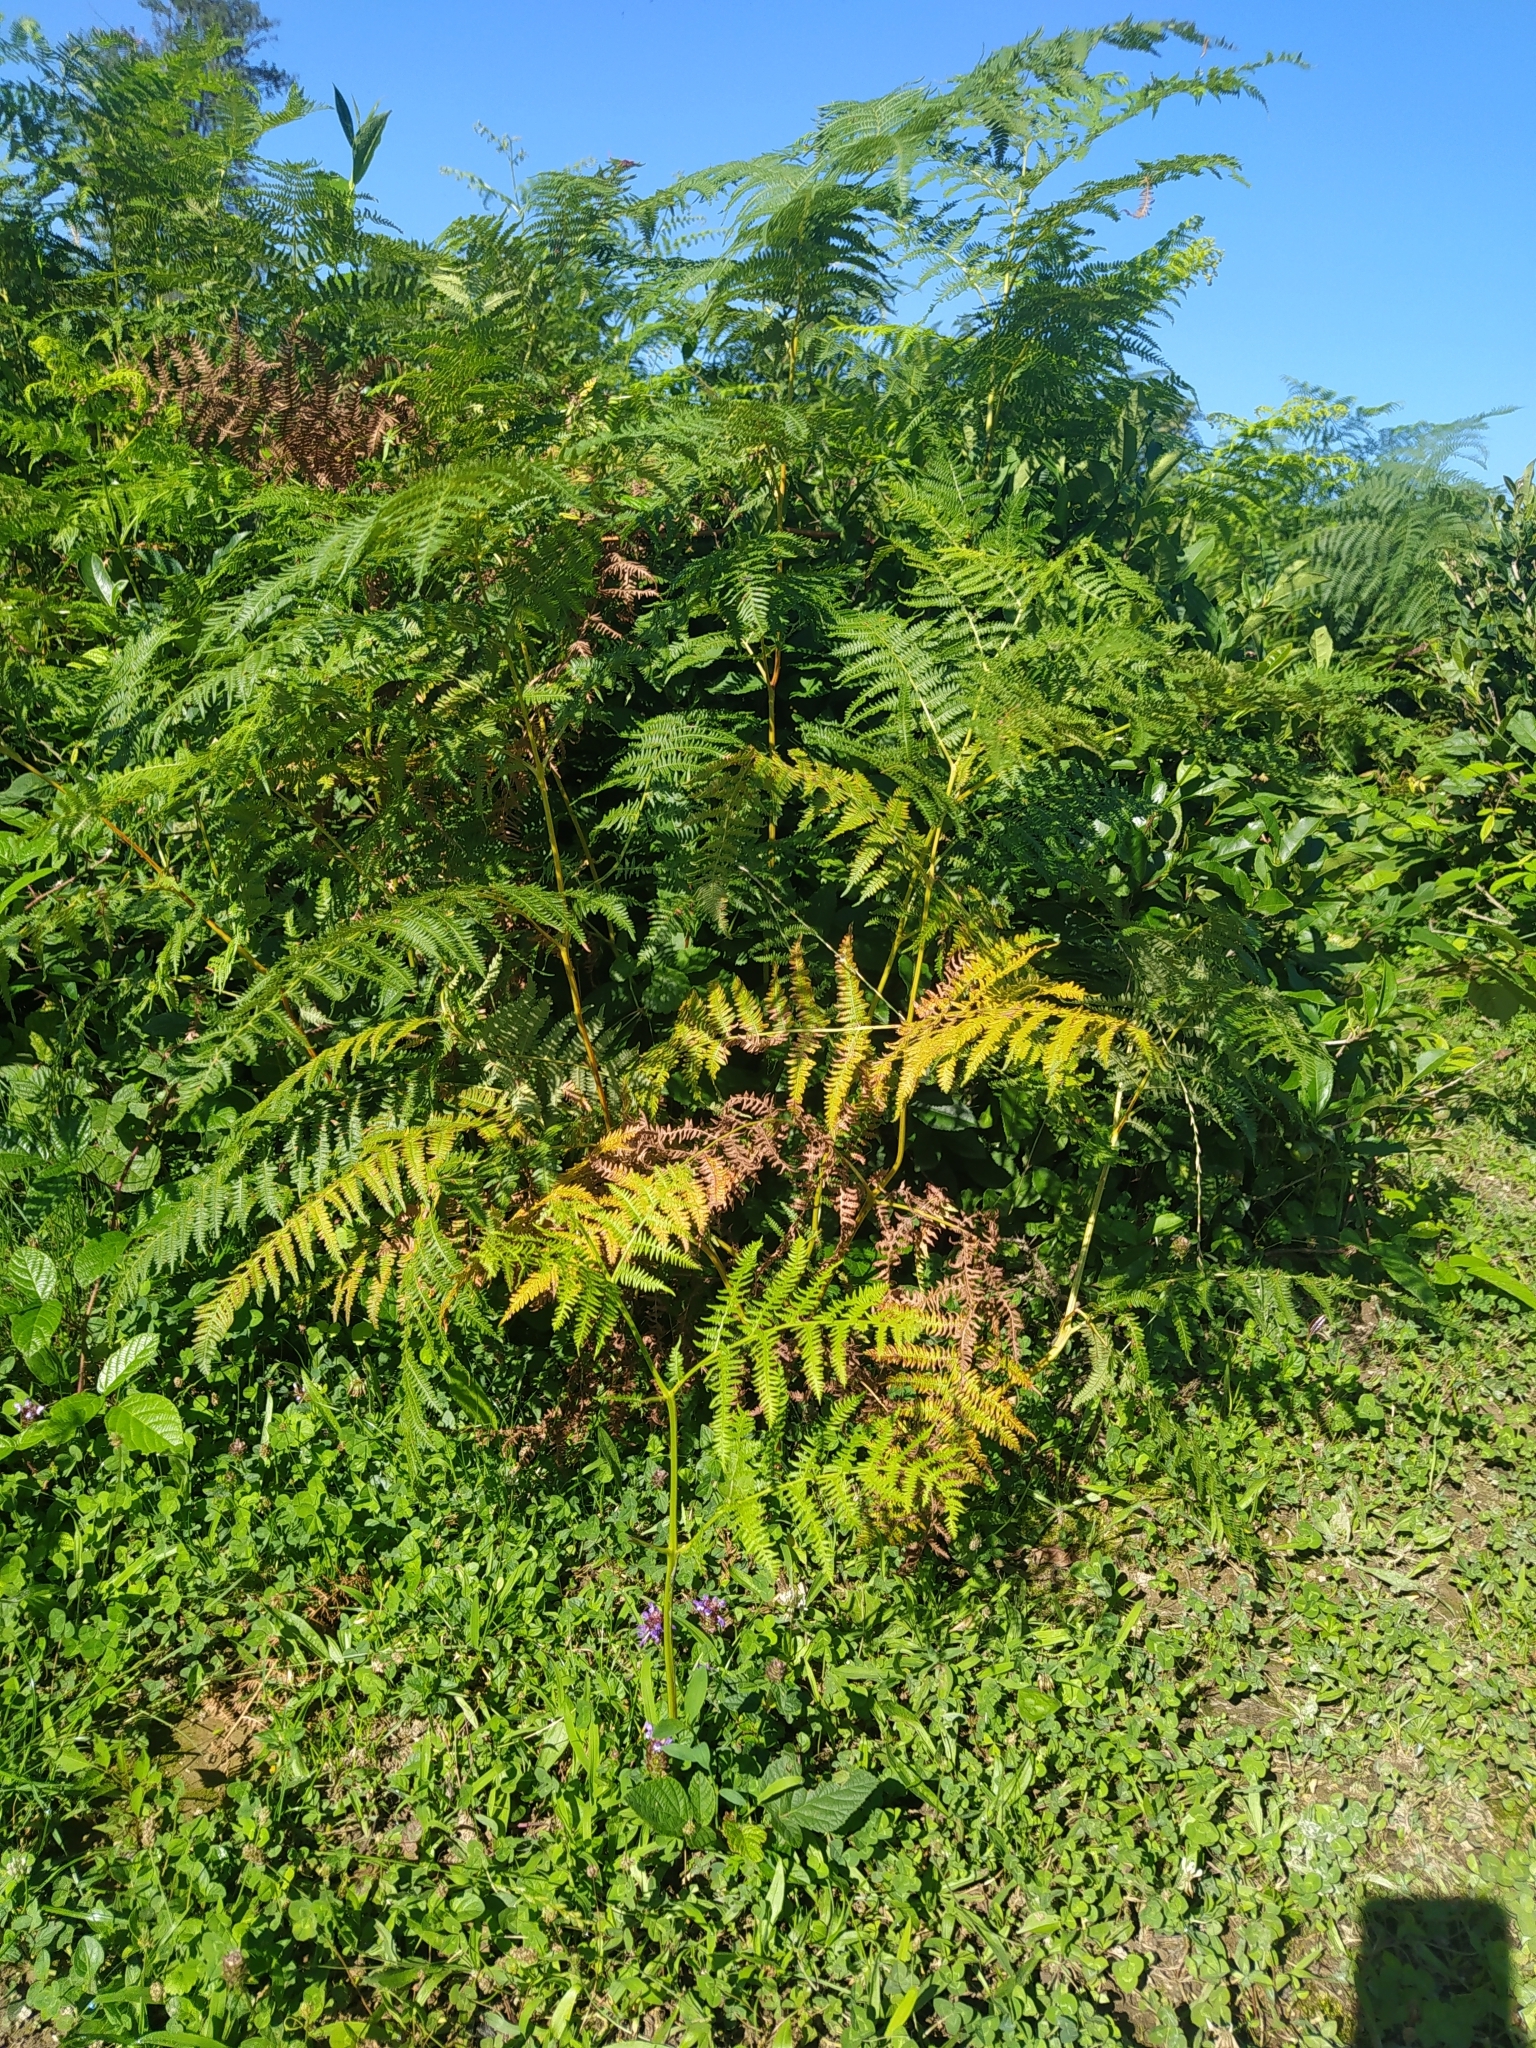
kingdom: Plantae
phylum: Tracheophyta
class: Polypodiopsida
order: Polypodiales
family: Dennstaedtiaceae
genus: Pteridium
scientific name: Pteridium tauricum
